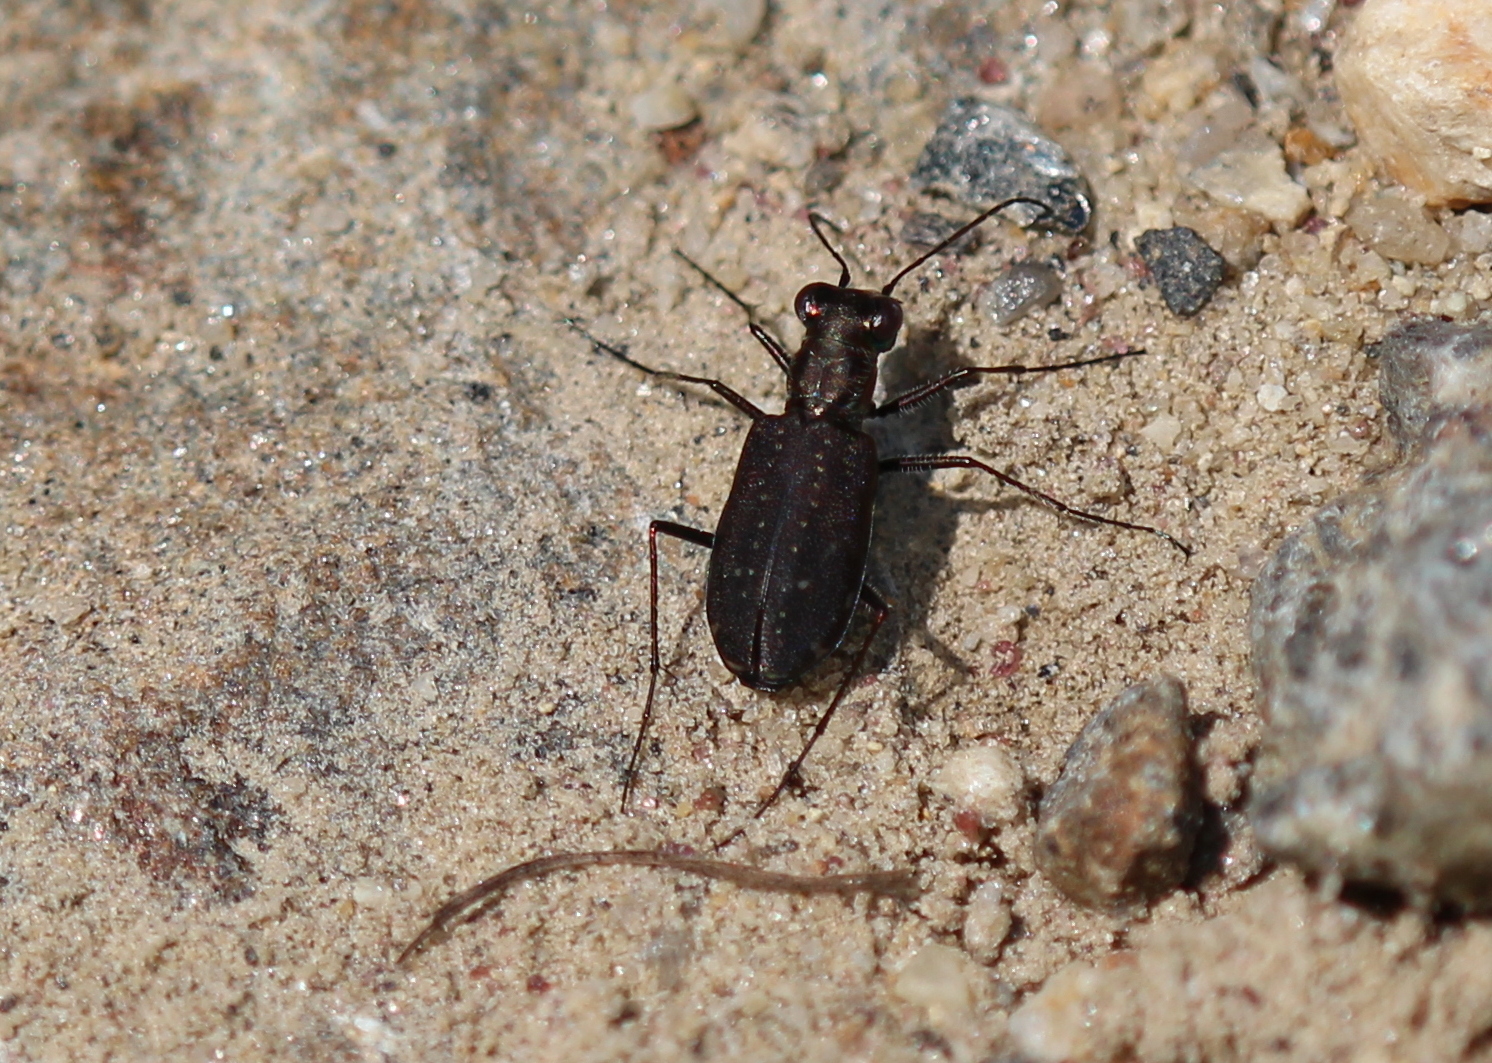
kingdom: Animalia
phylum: Arthropoda
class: Insecta
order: Coleoptera
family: Carabidae
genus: Cicindela
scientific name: Cicindela punctulata
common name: Punctured tiger beetle
